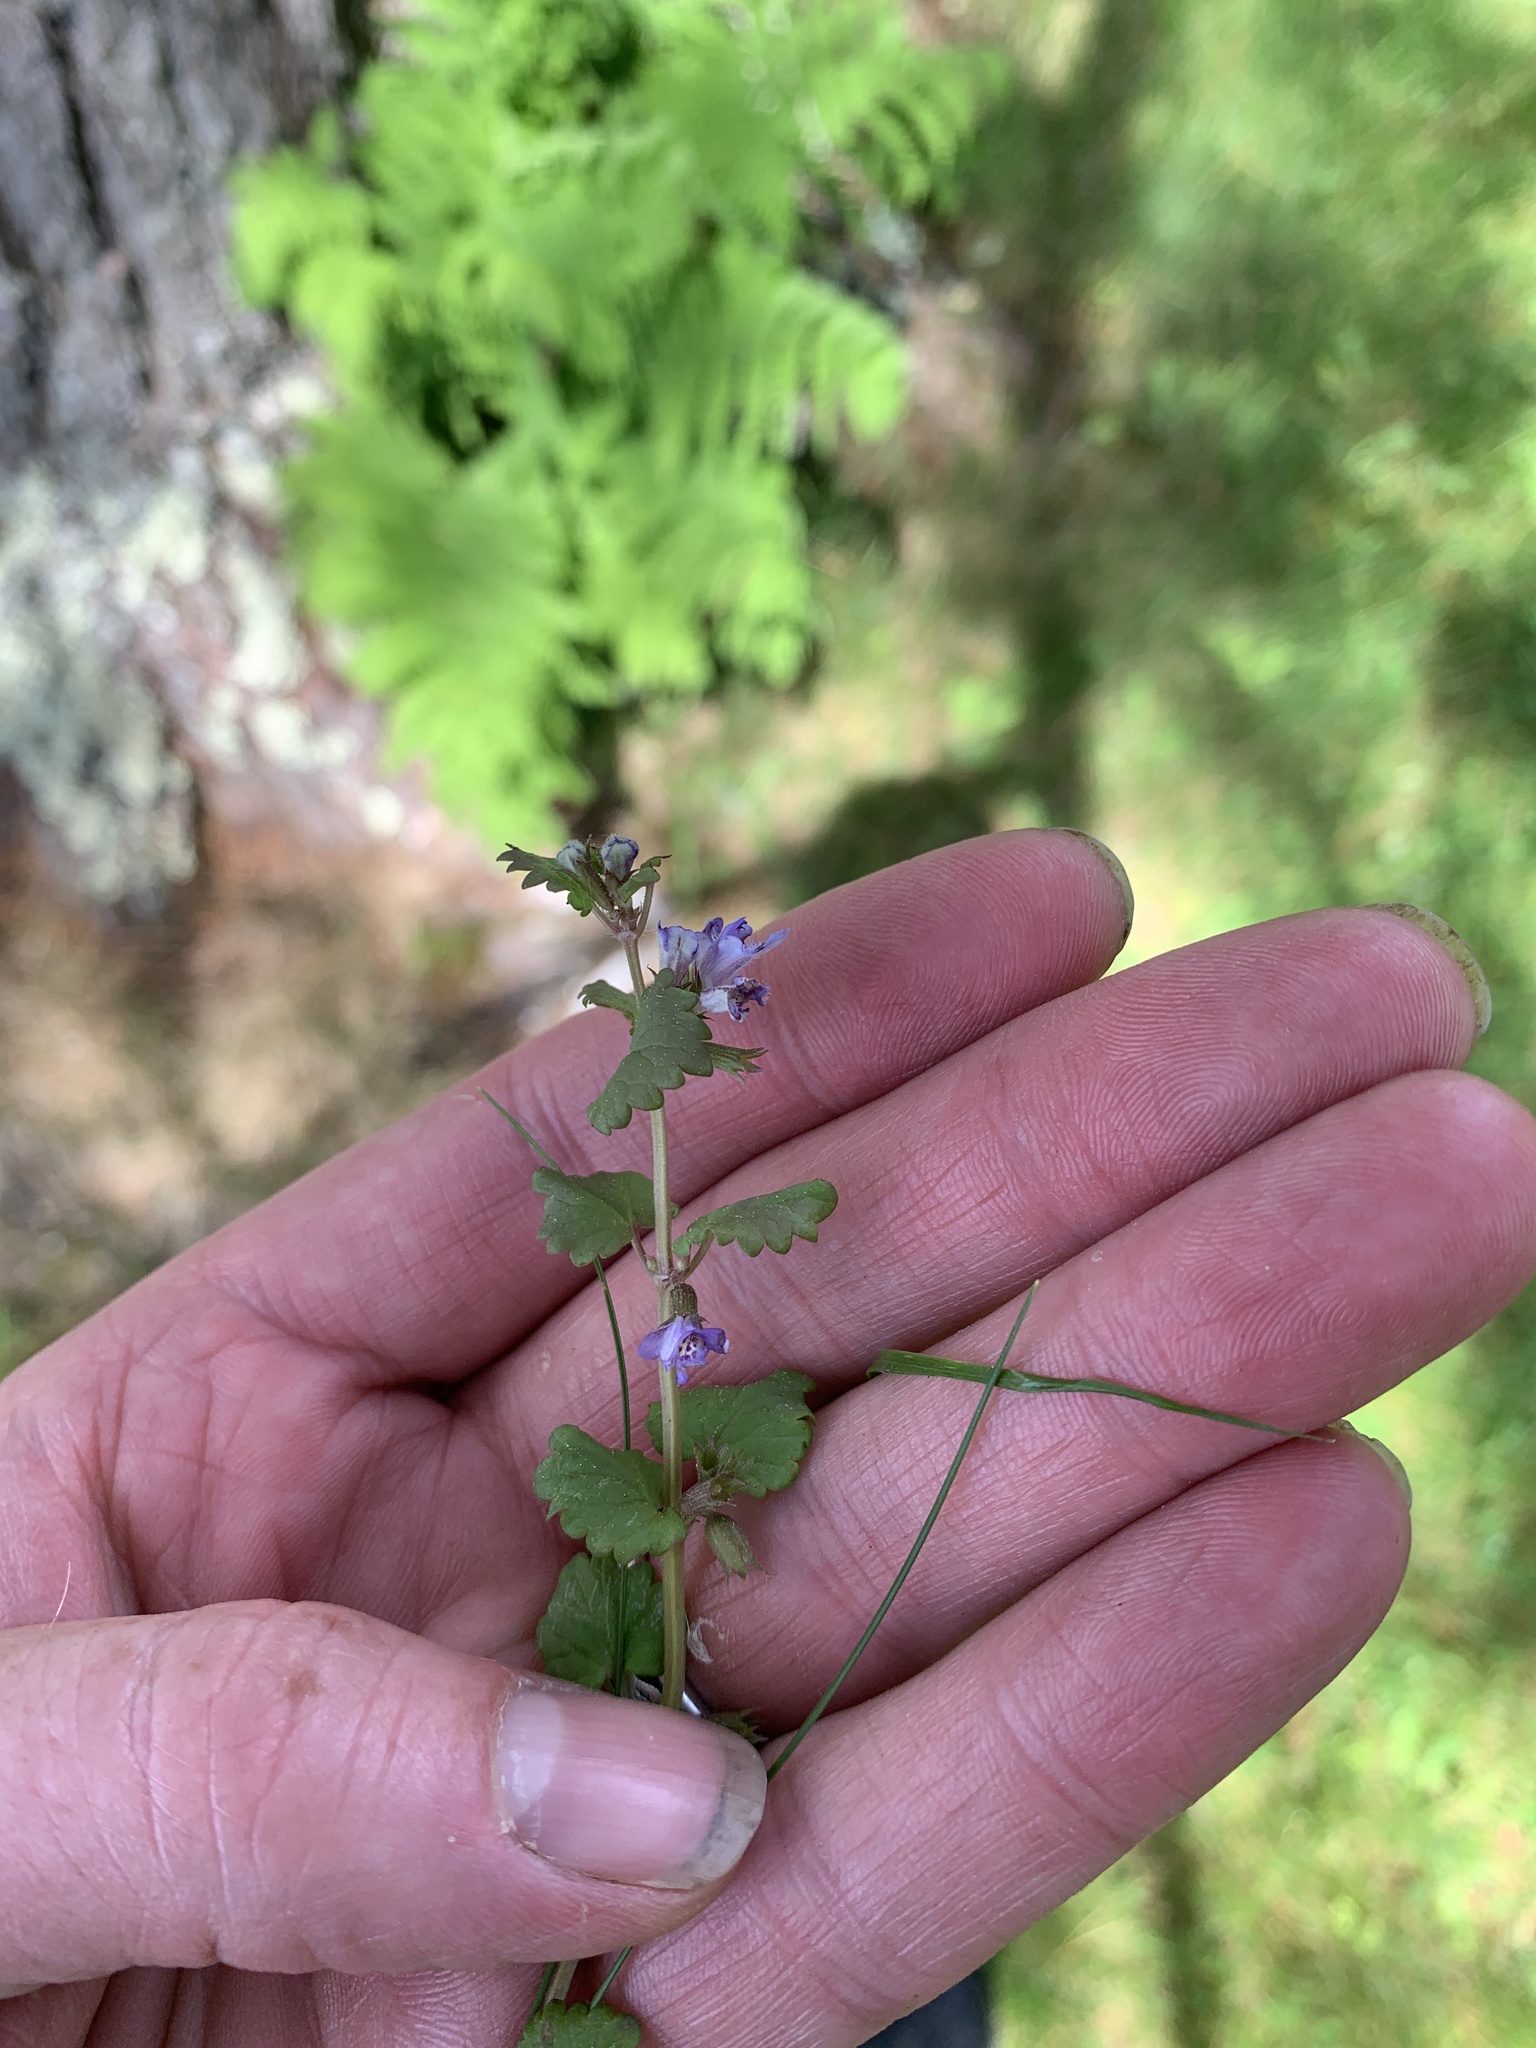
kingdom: Plantae
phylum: Tracheophyta
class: Magnoliopsida
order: Lamiales
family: Lamiaceae
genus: Glechoma
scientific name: Glechoma hederacea
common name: Ground ivy
